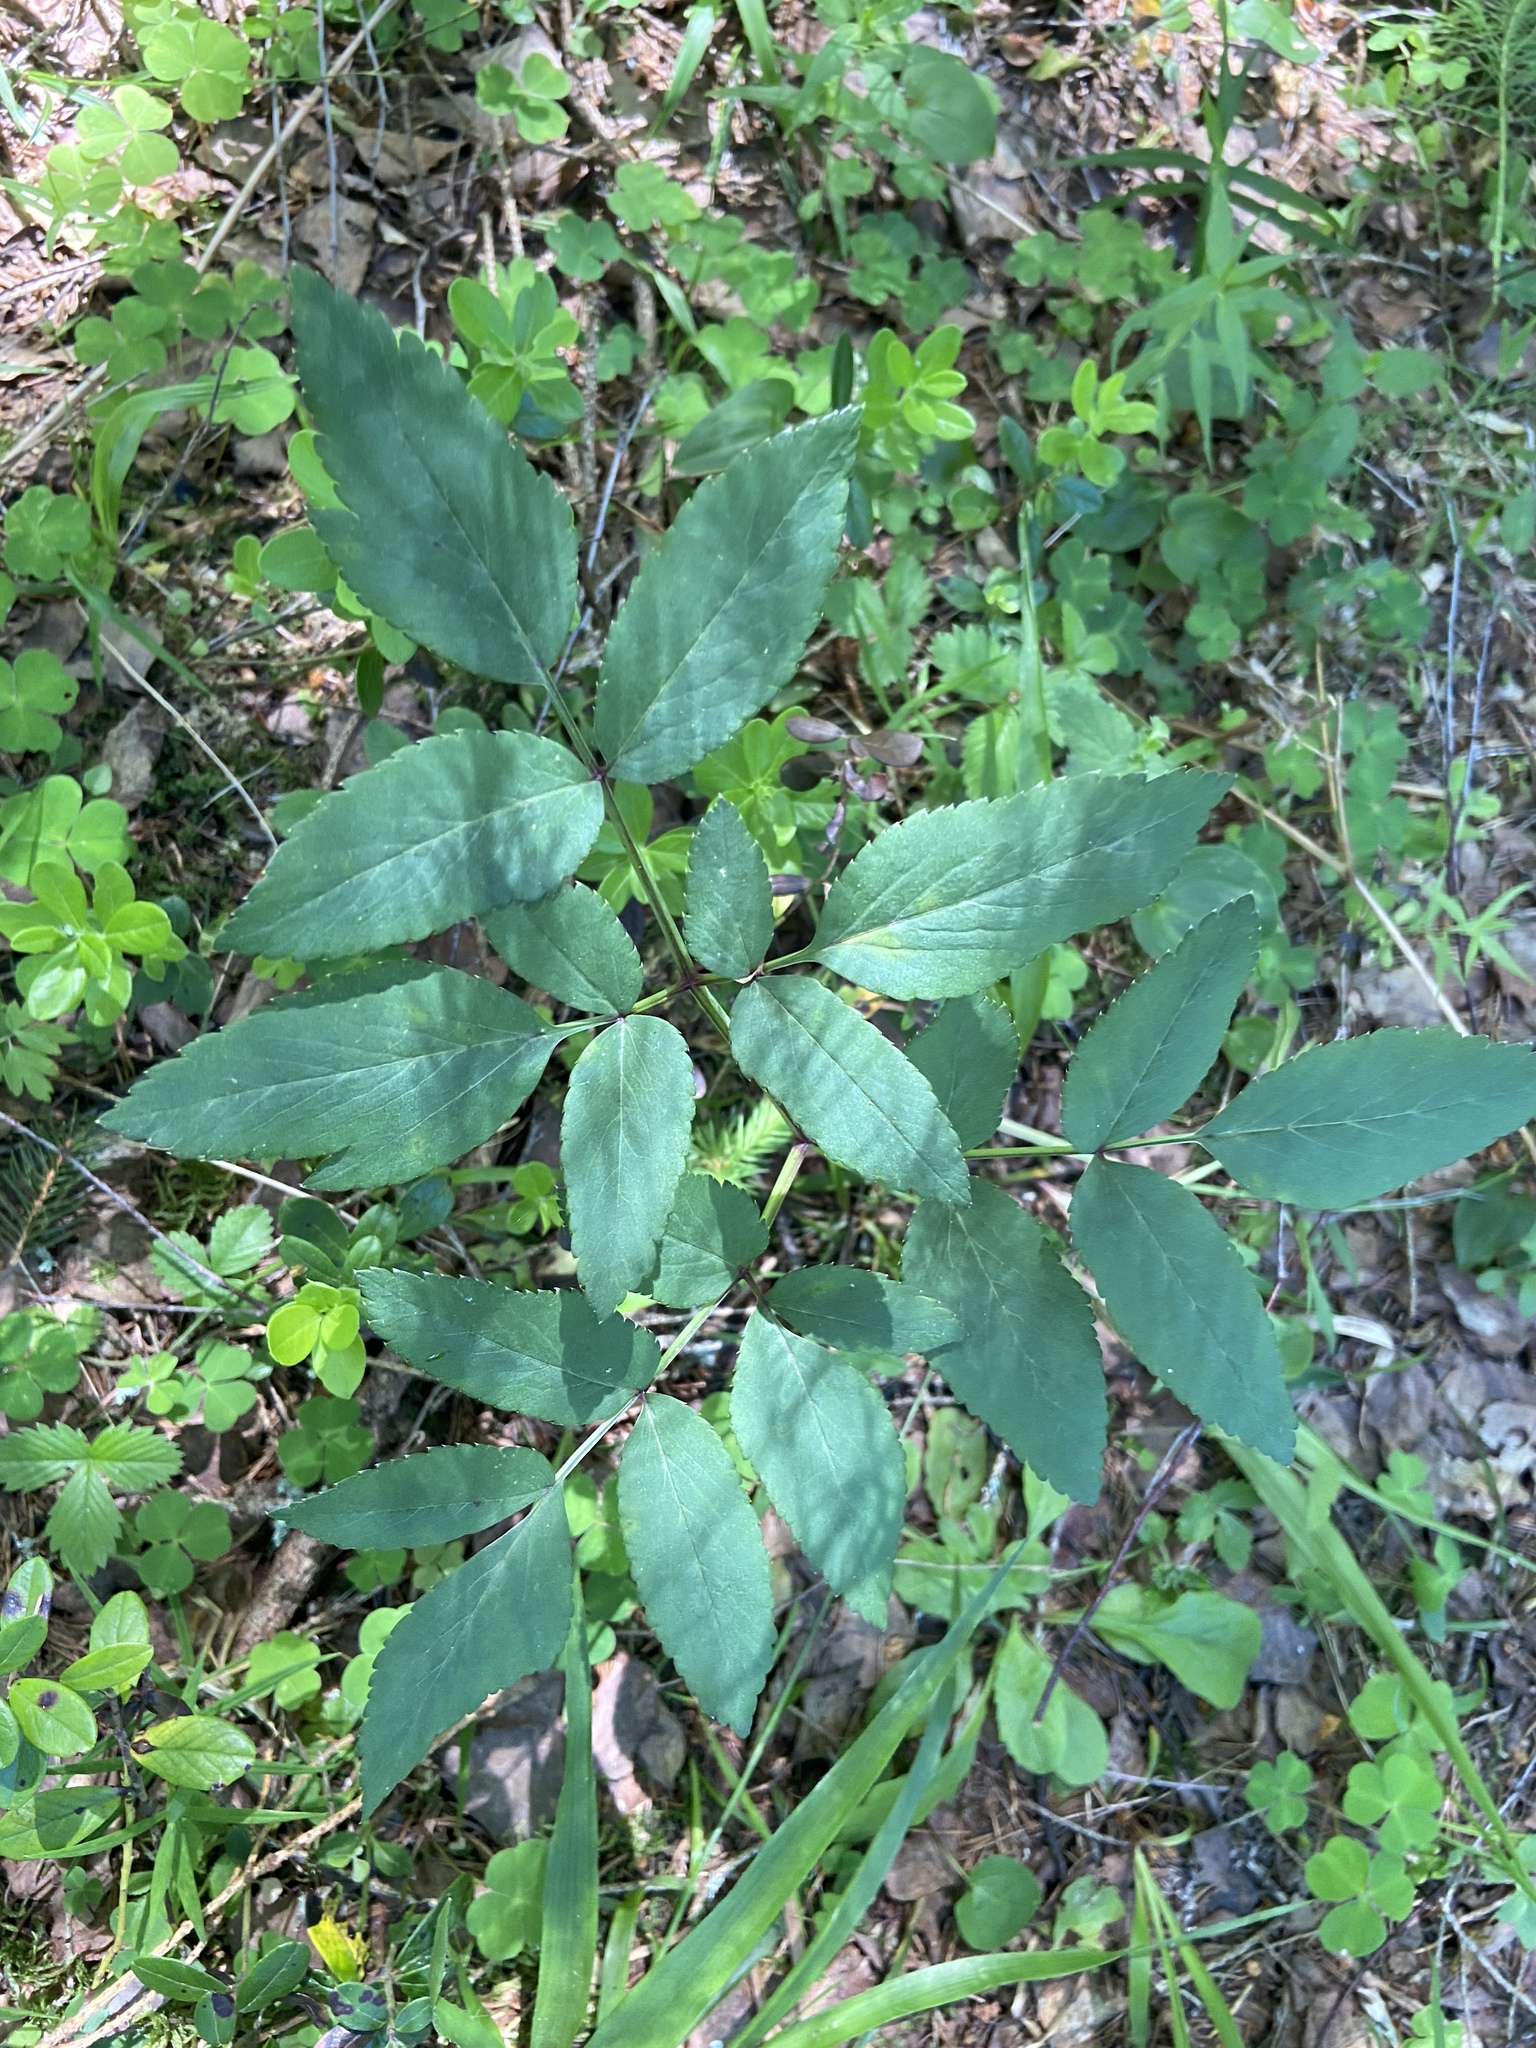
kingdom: Plantae
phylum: Tracheophyta
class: Magnoliopsida
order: Apiales
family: Apiaceae
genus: Angelica
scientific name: Angelica sylvestris
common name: Wild angelica
